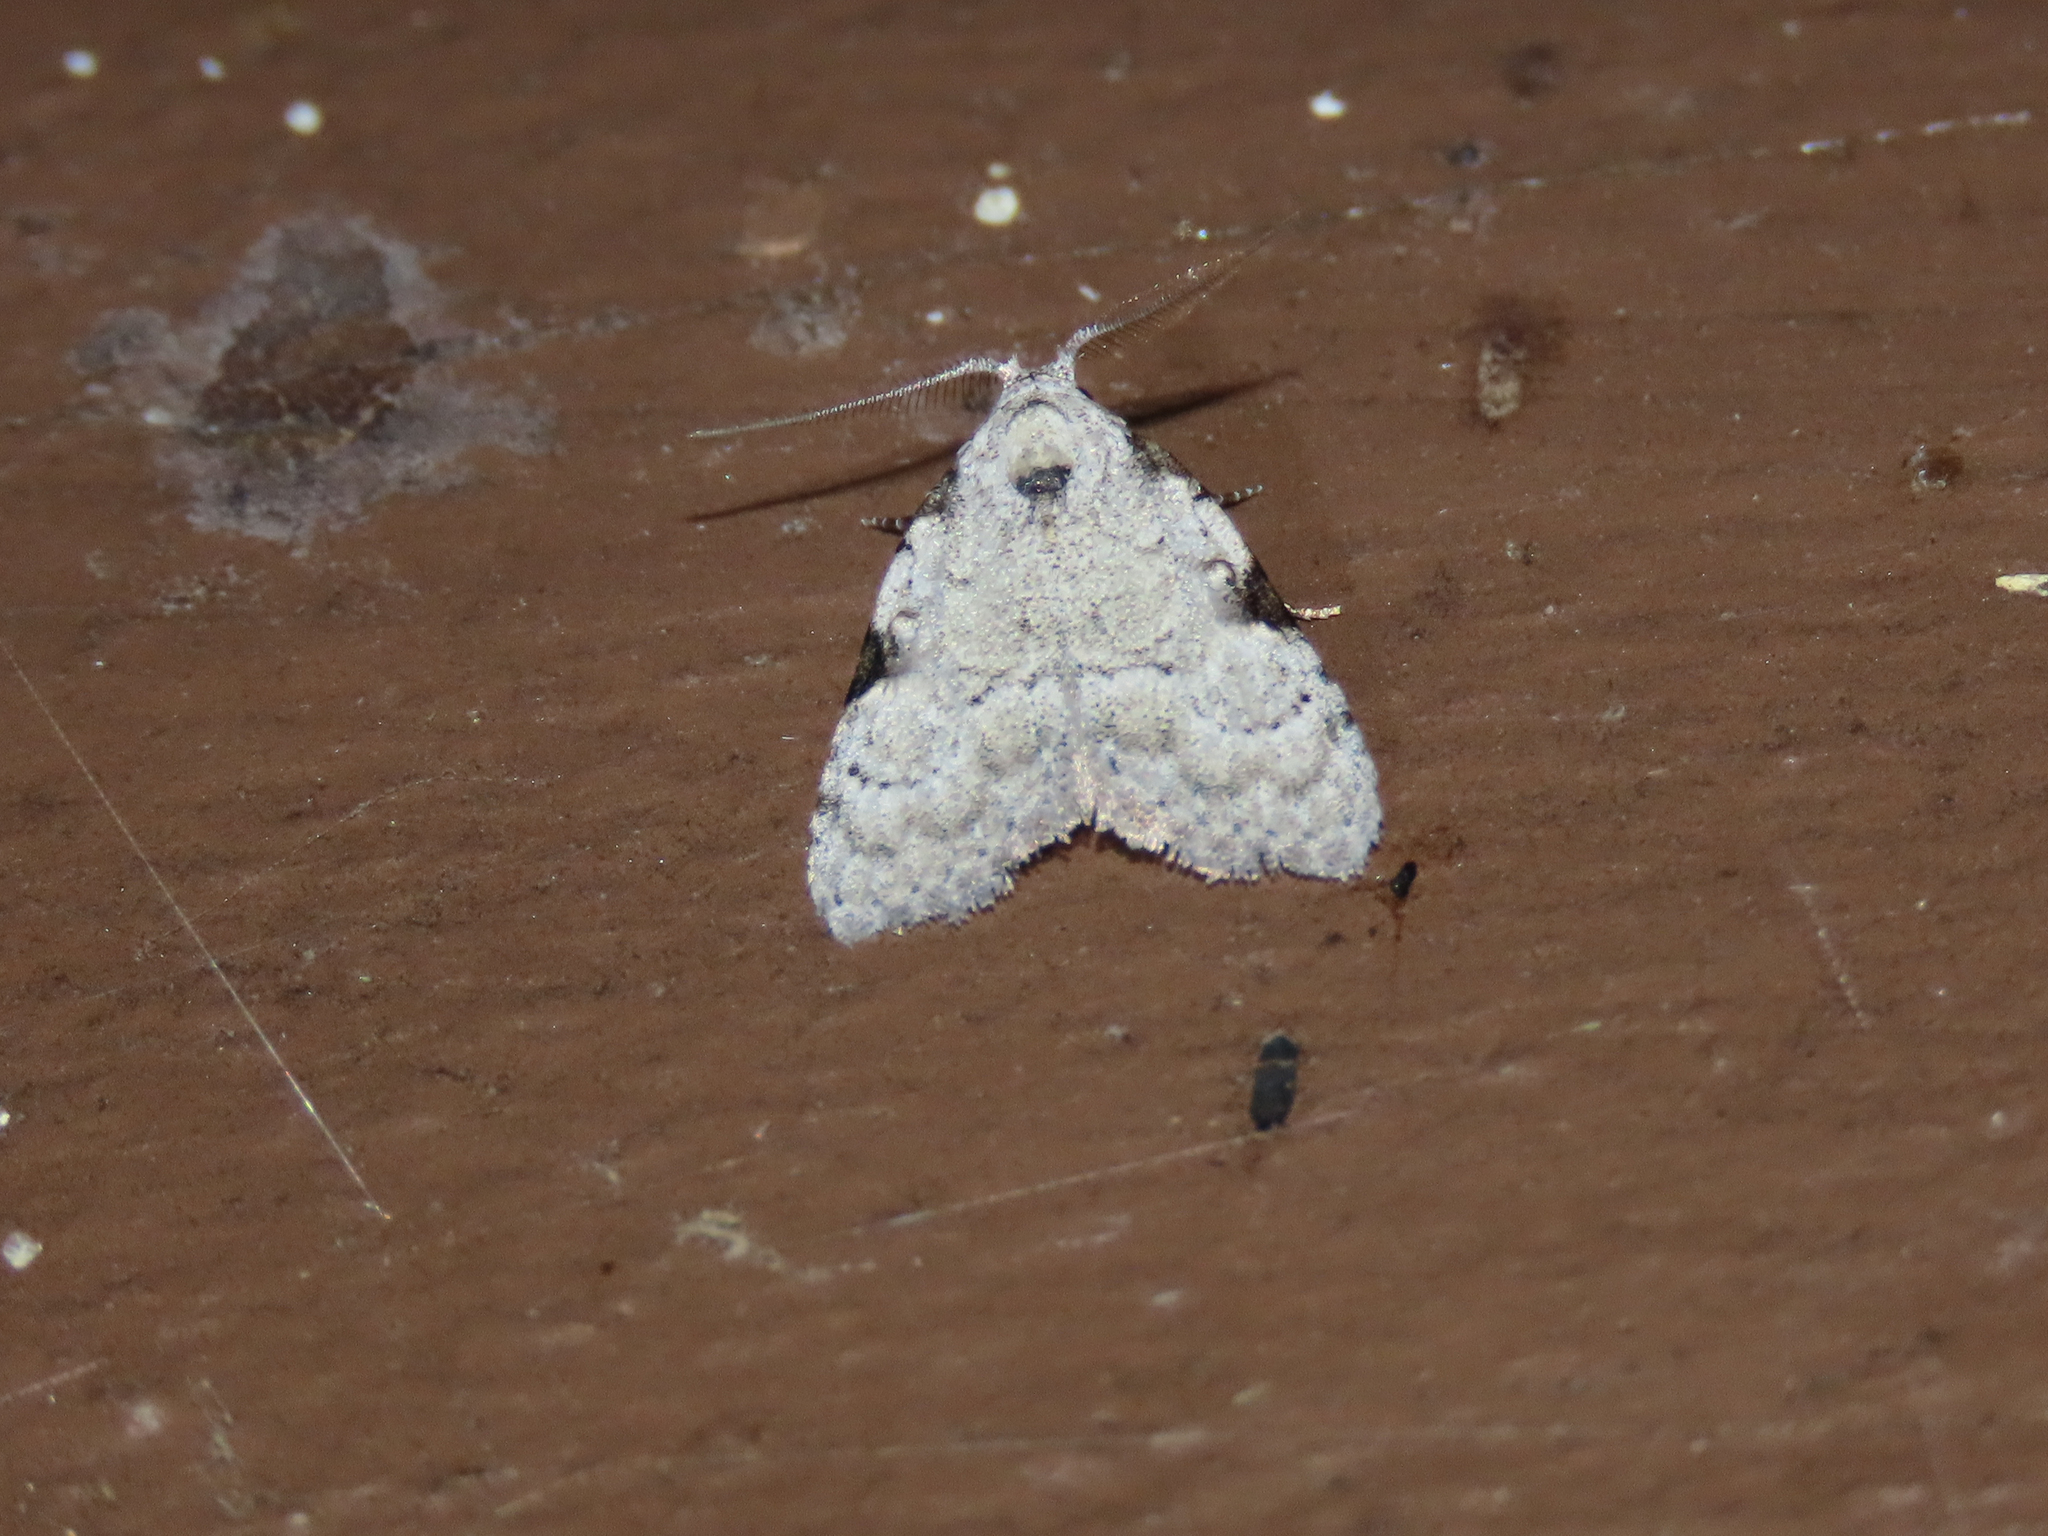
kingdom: Animalia
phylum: Arthropoda
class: Insecta
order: Lepidoptera
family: Nolidae
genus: Meganola
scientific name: Meganola minuscula
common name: Confused meganola moth
